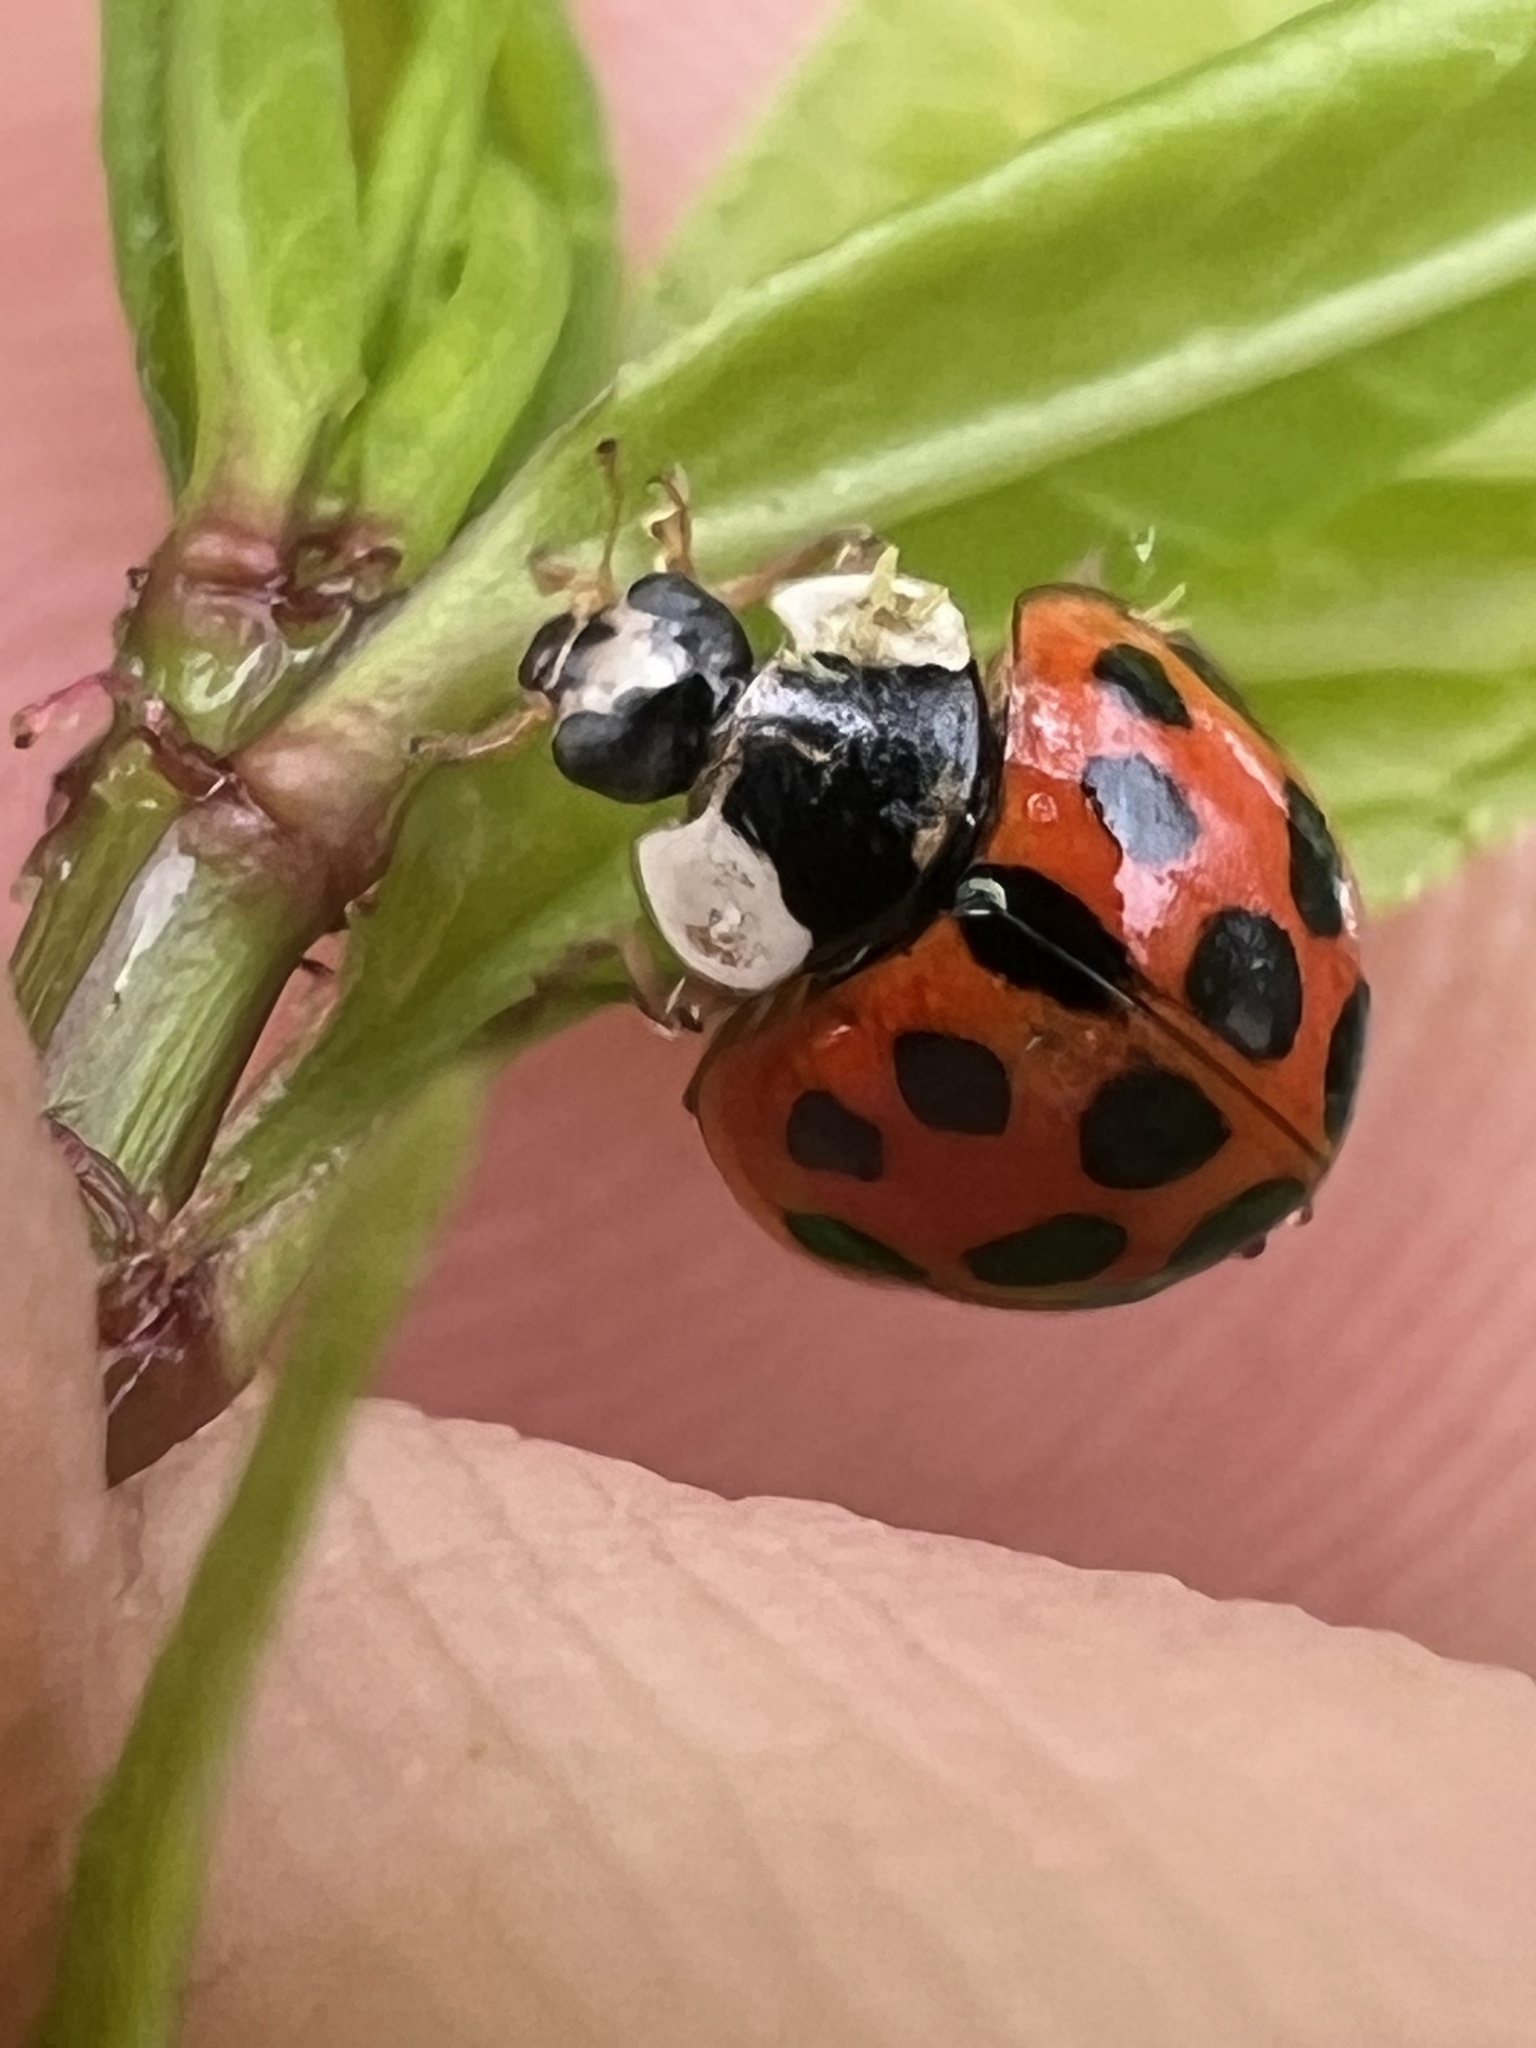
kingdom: Fungi
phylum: Ascomycota
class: Laboulbeniomycetes
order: Laboulbeniales
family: Laboulbeniaceae
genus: Hesperomyces
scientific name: Hesperomyces harmoniae
